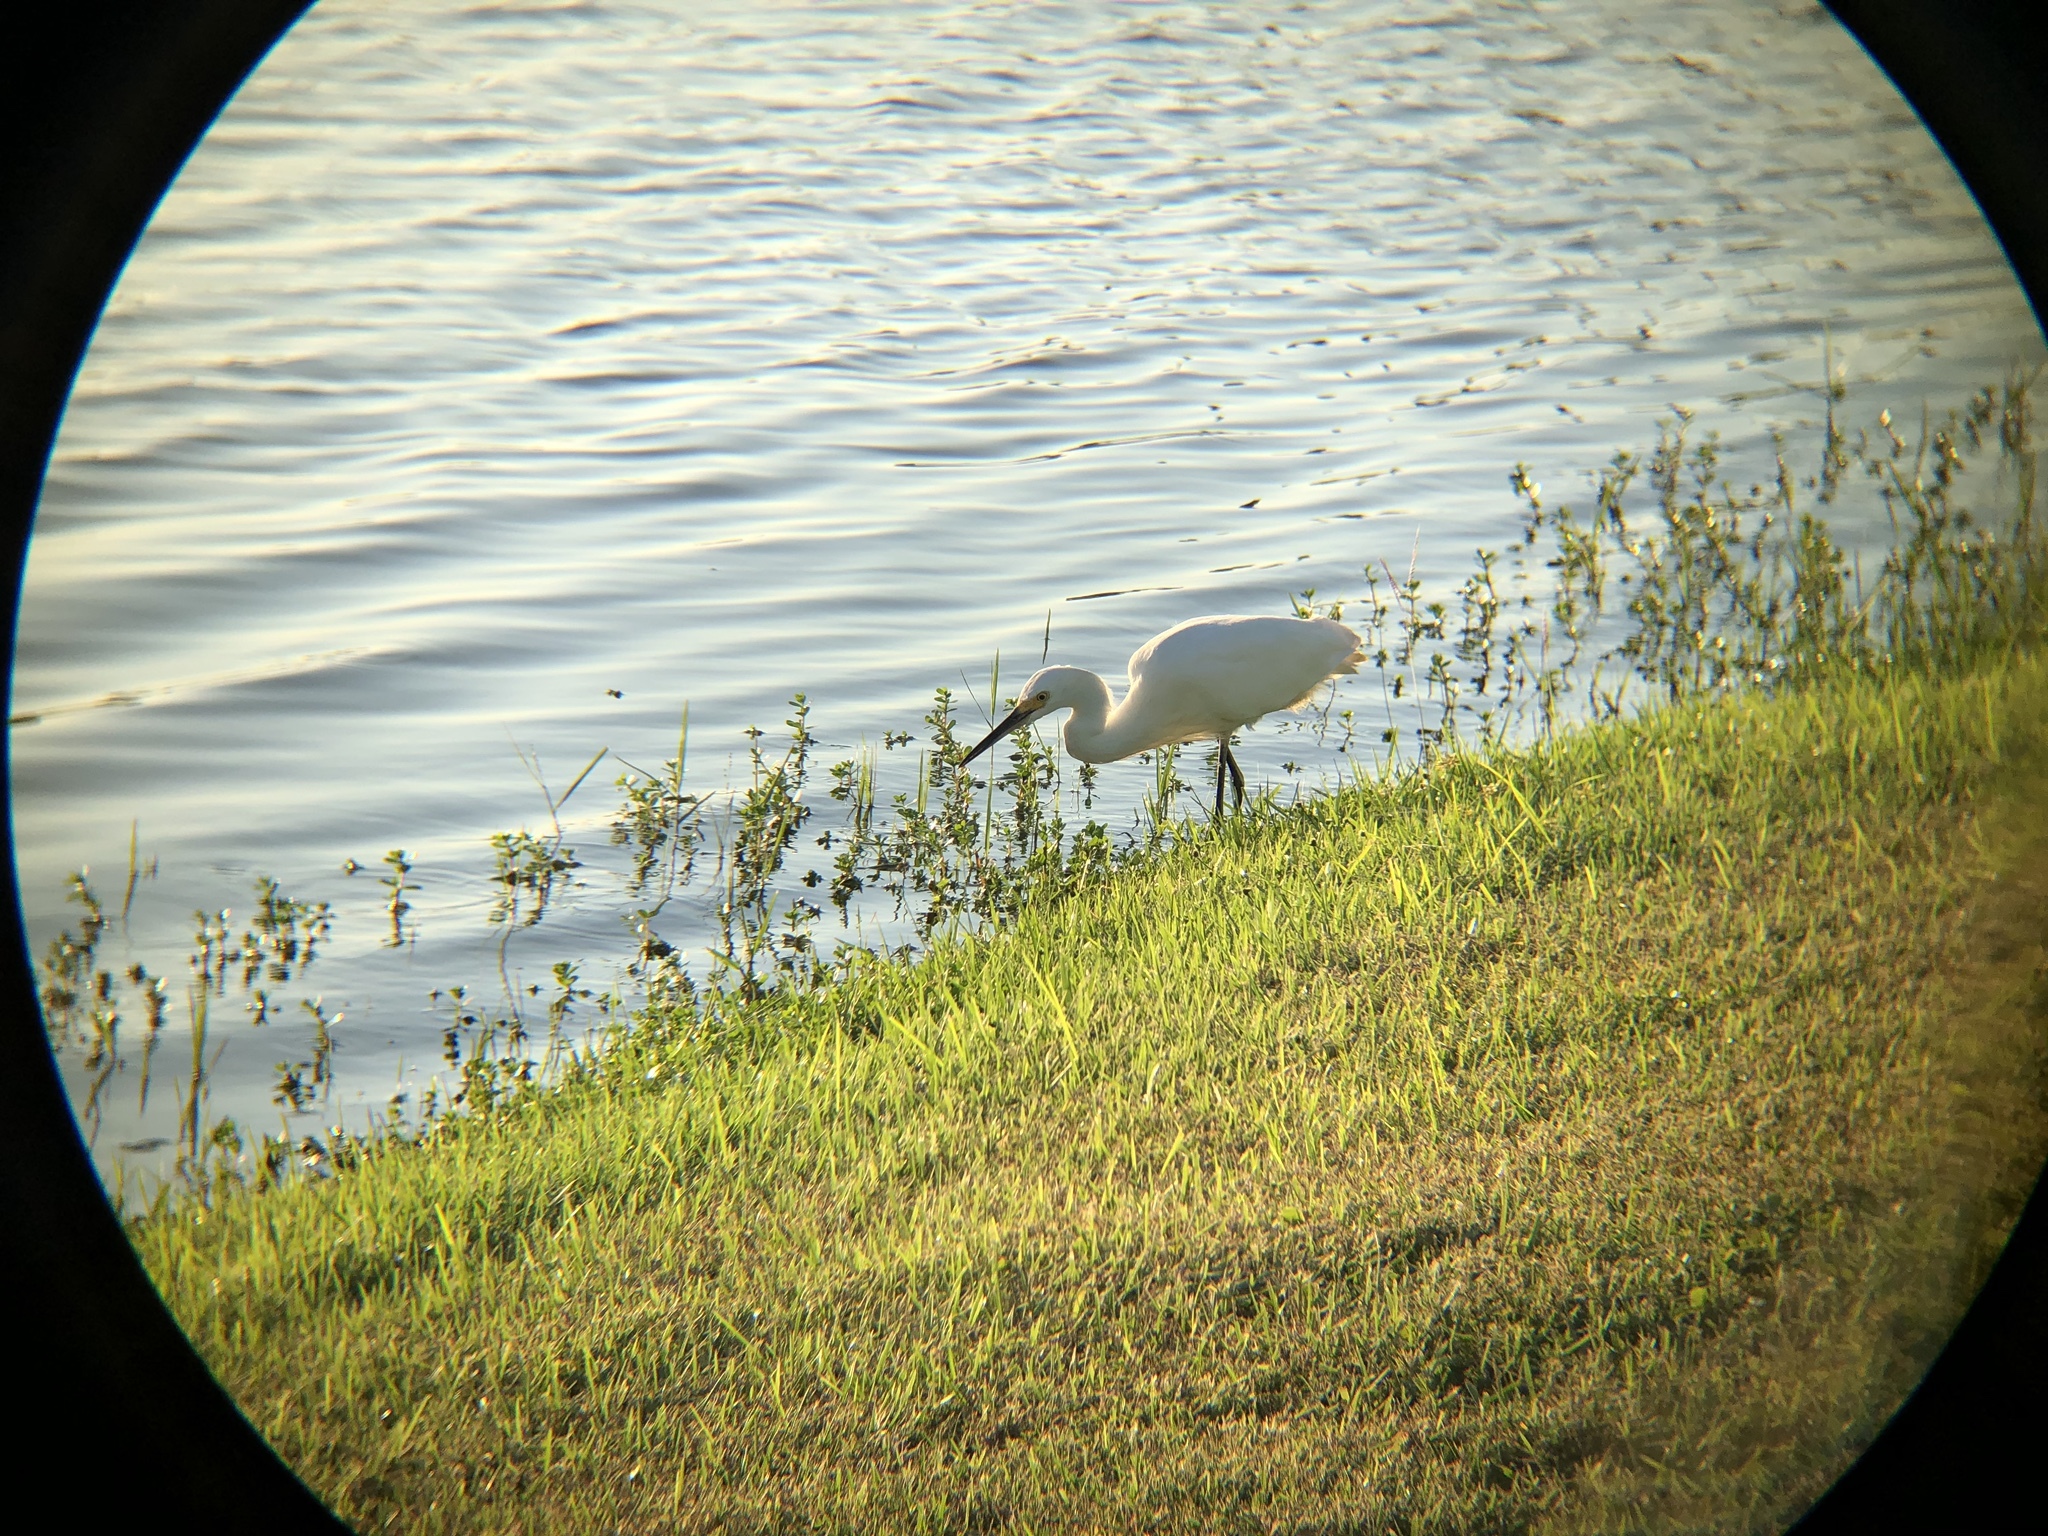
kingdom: Animalia
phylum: Chordata
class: Aves
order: Pelecaniformes
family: Ardeidae
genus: Egretta
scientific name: Egretta thula
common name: Snowy egret
